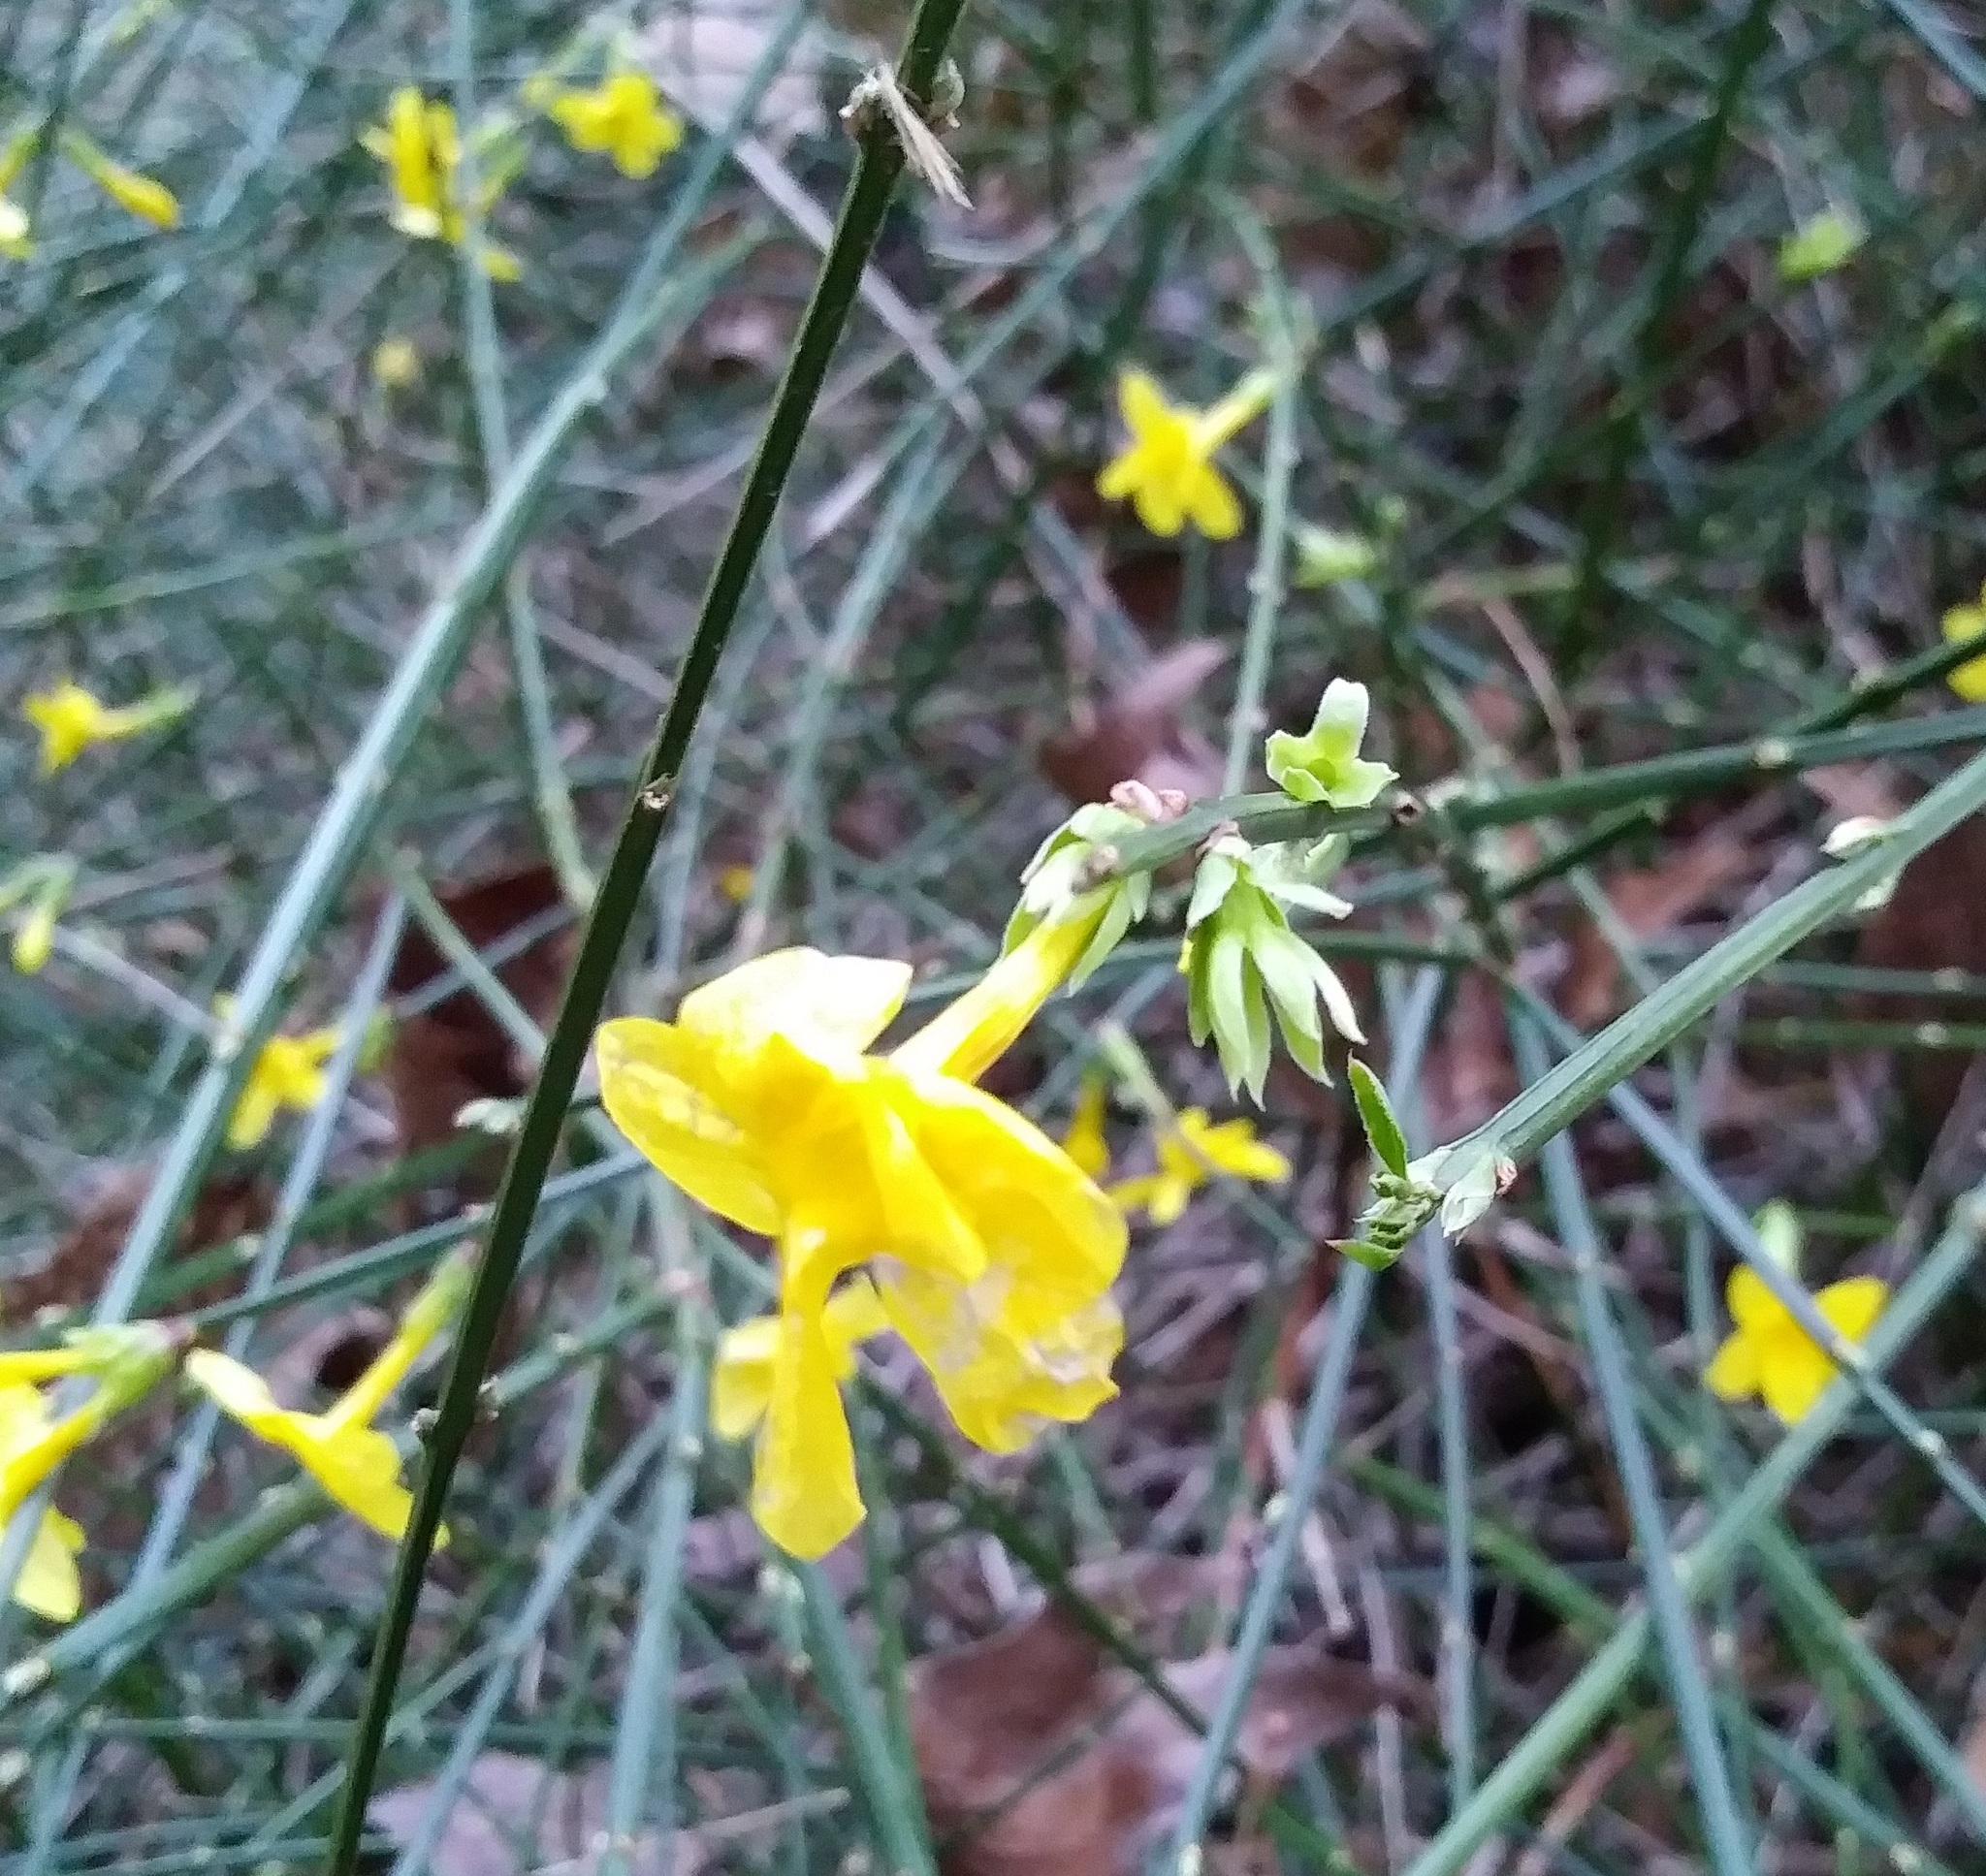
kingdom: Plantae
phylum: Tracheophyta
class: Magnoliopsida
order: Lamiales
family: Oleaceae
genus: Jasminum
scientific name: Jasminum nudiflorum
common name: Winter jasmine
